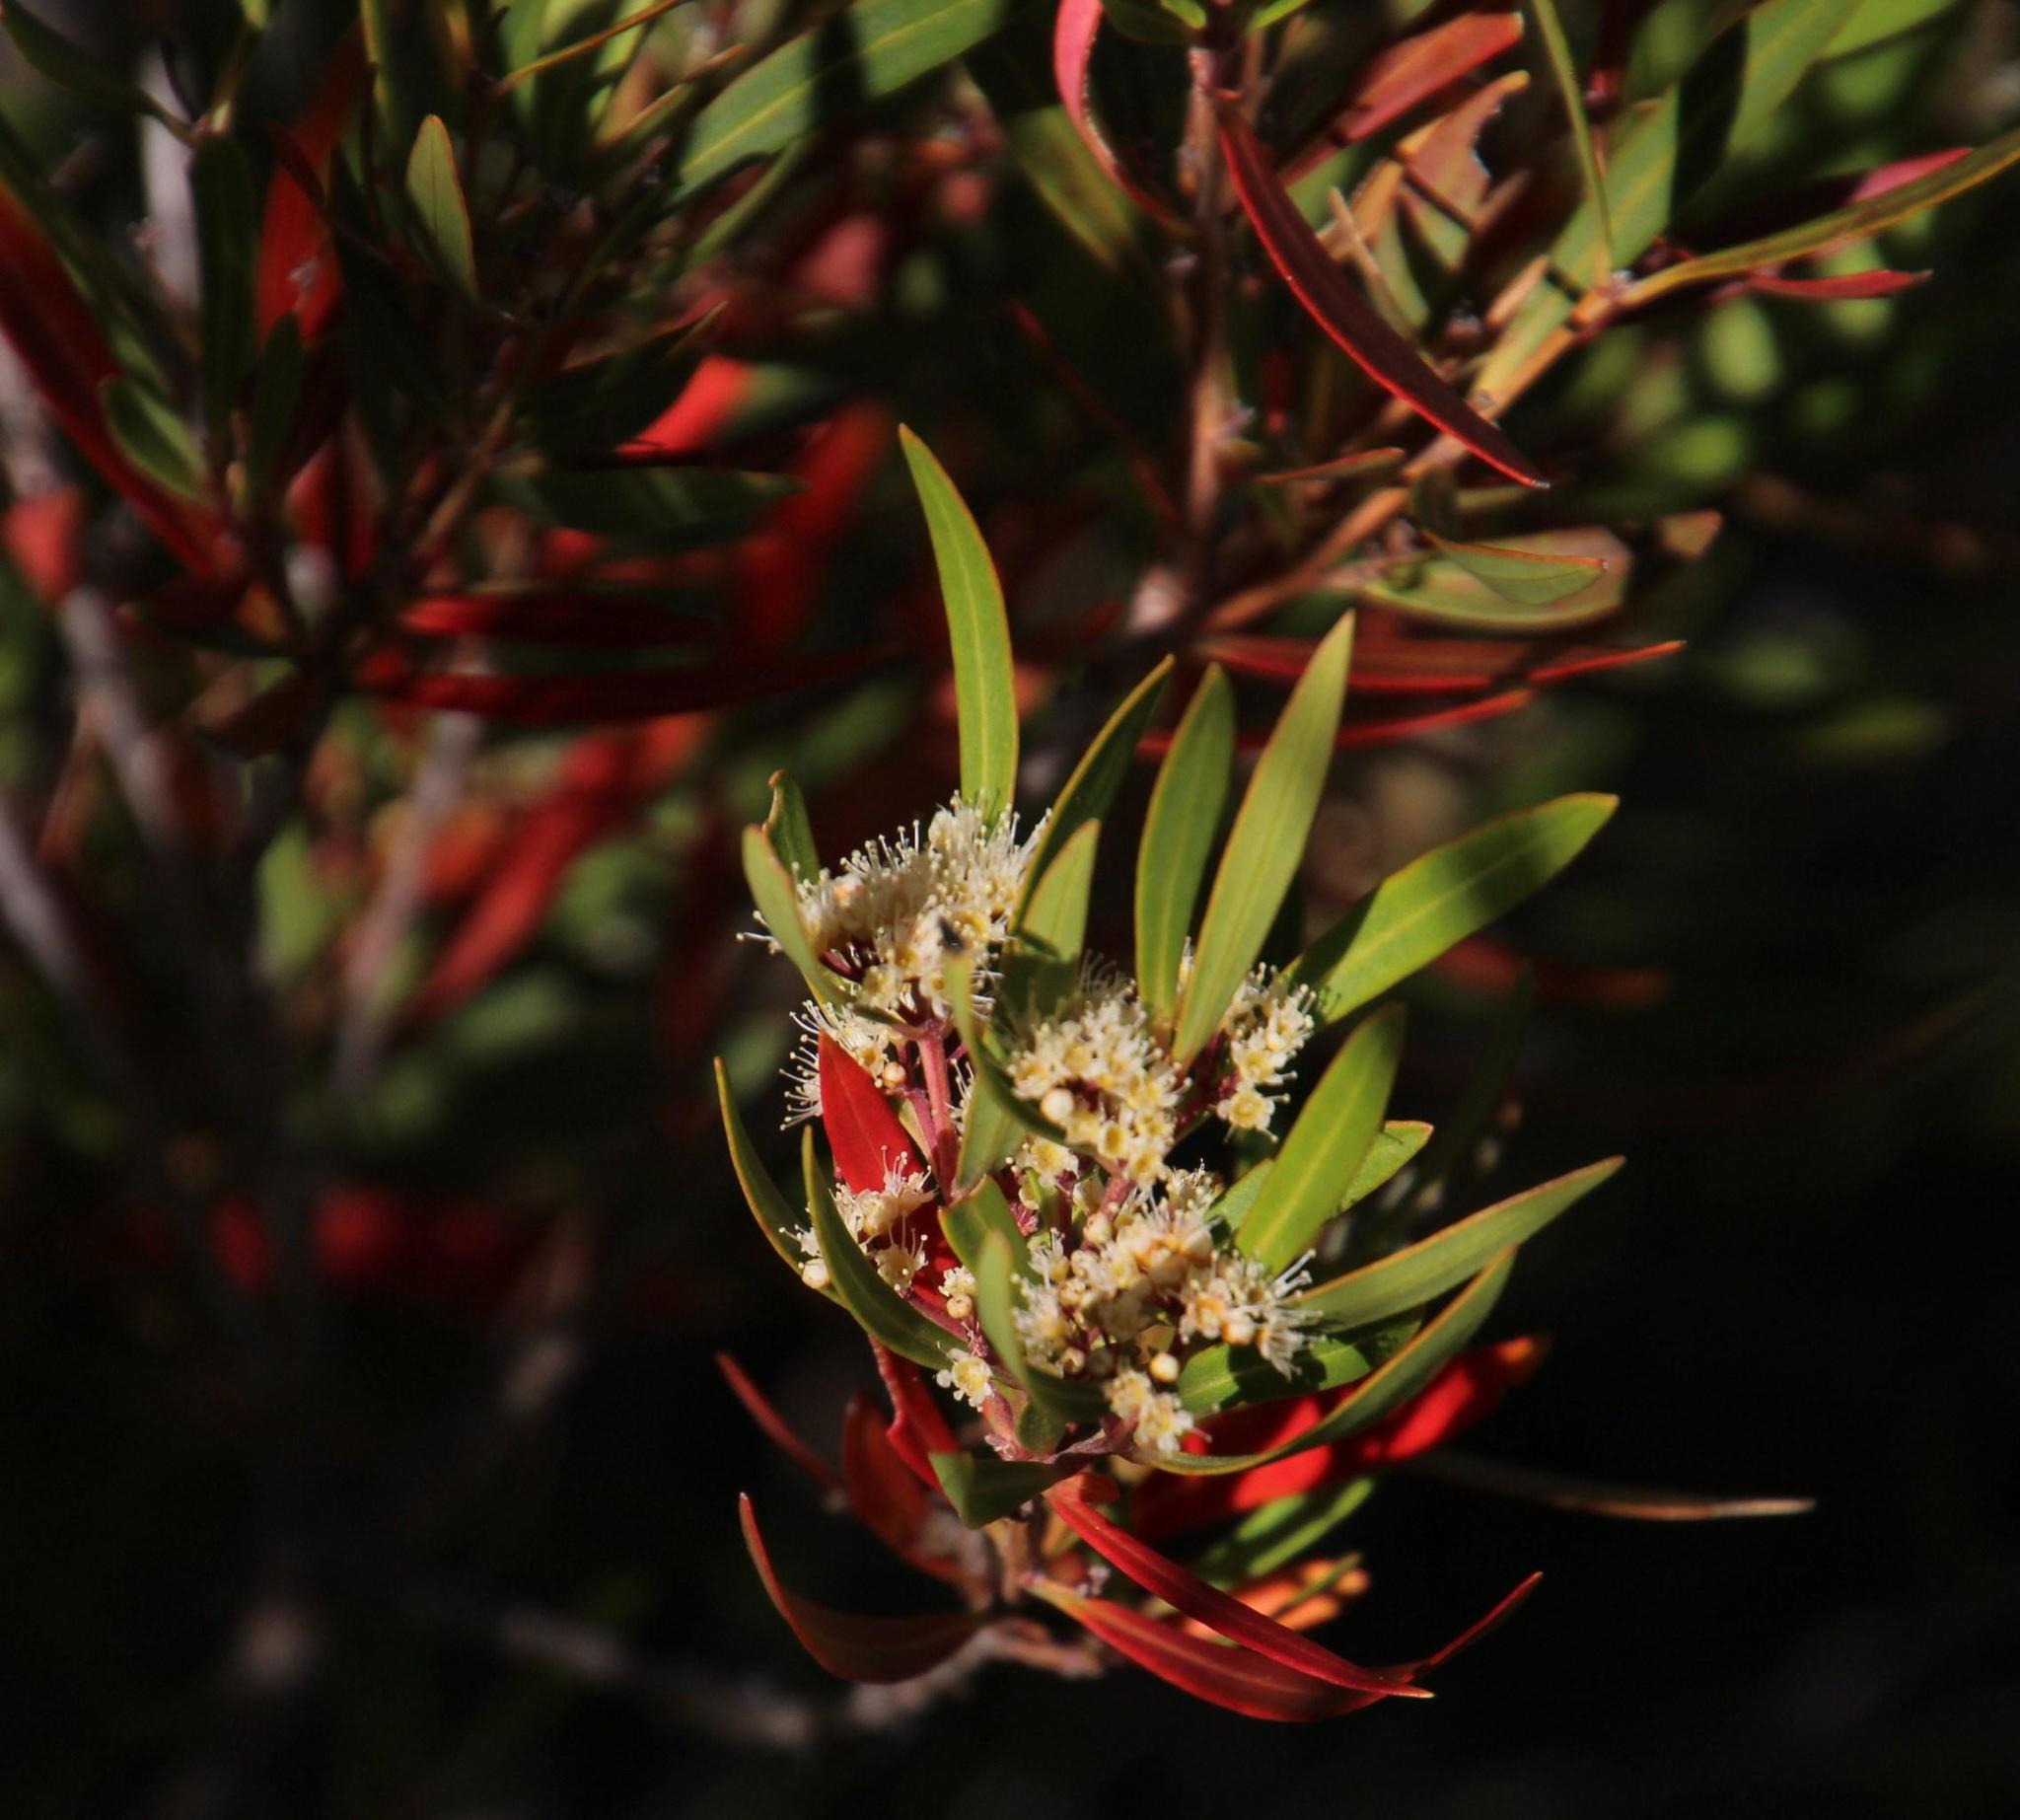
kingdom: Plantae
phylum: Tracheophyta
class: Magnoliopsida
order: Myrtales
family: Myrtaceae
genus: Callistemon
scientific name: Callistemon lanceolatus
